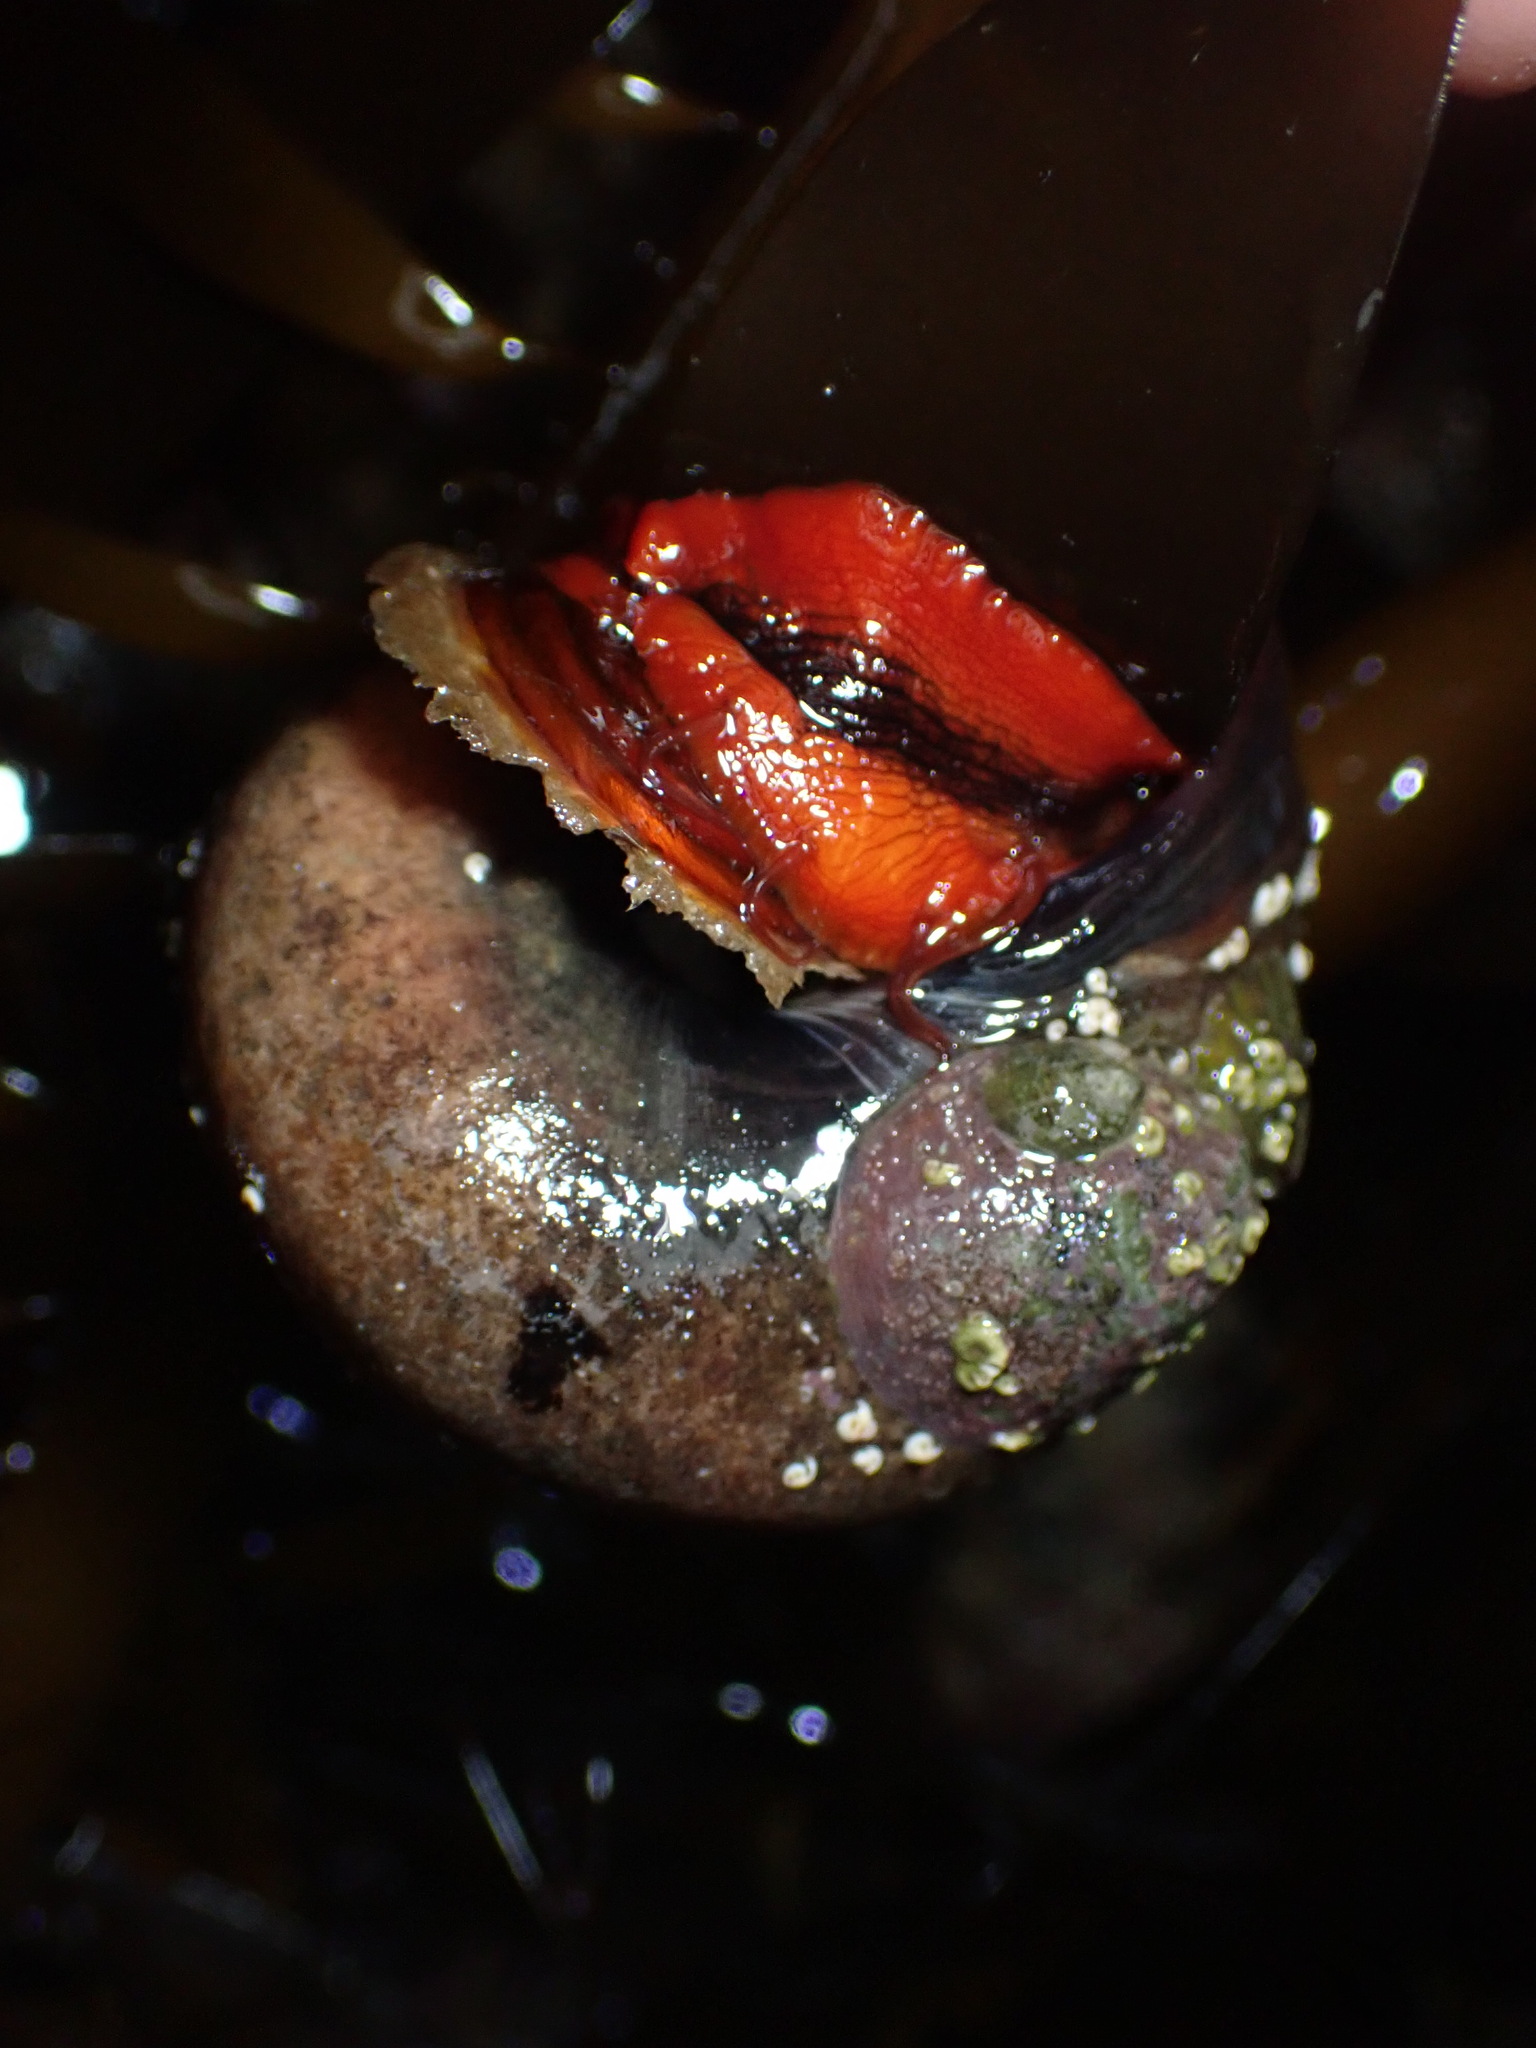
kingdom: Animalia
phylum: Mollusca
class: Gastropoda
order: Trochida
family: Tegulidae
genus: Norrisia
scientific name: Norrisia norrisii
